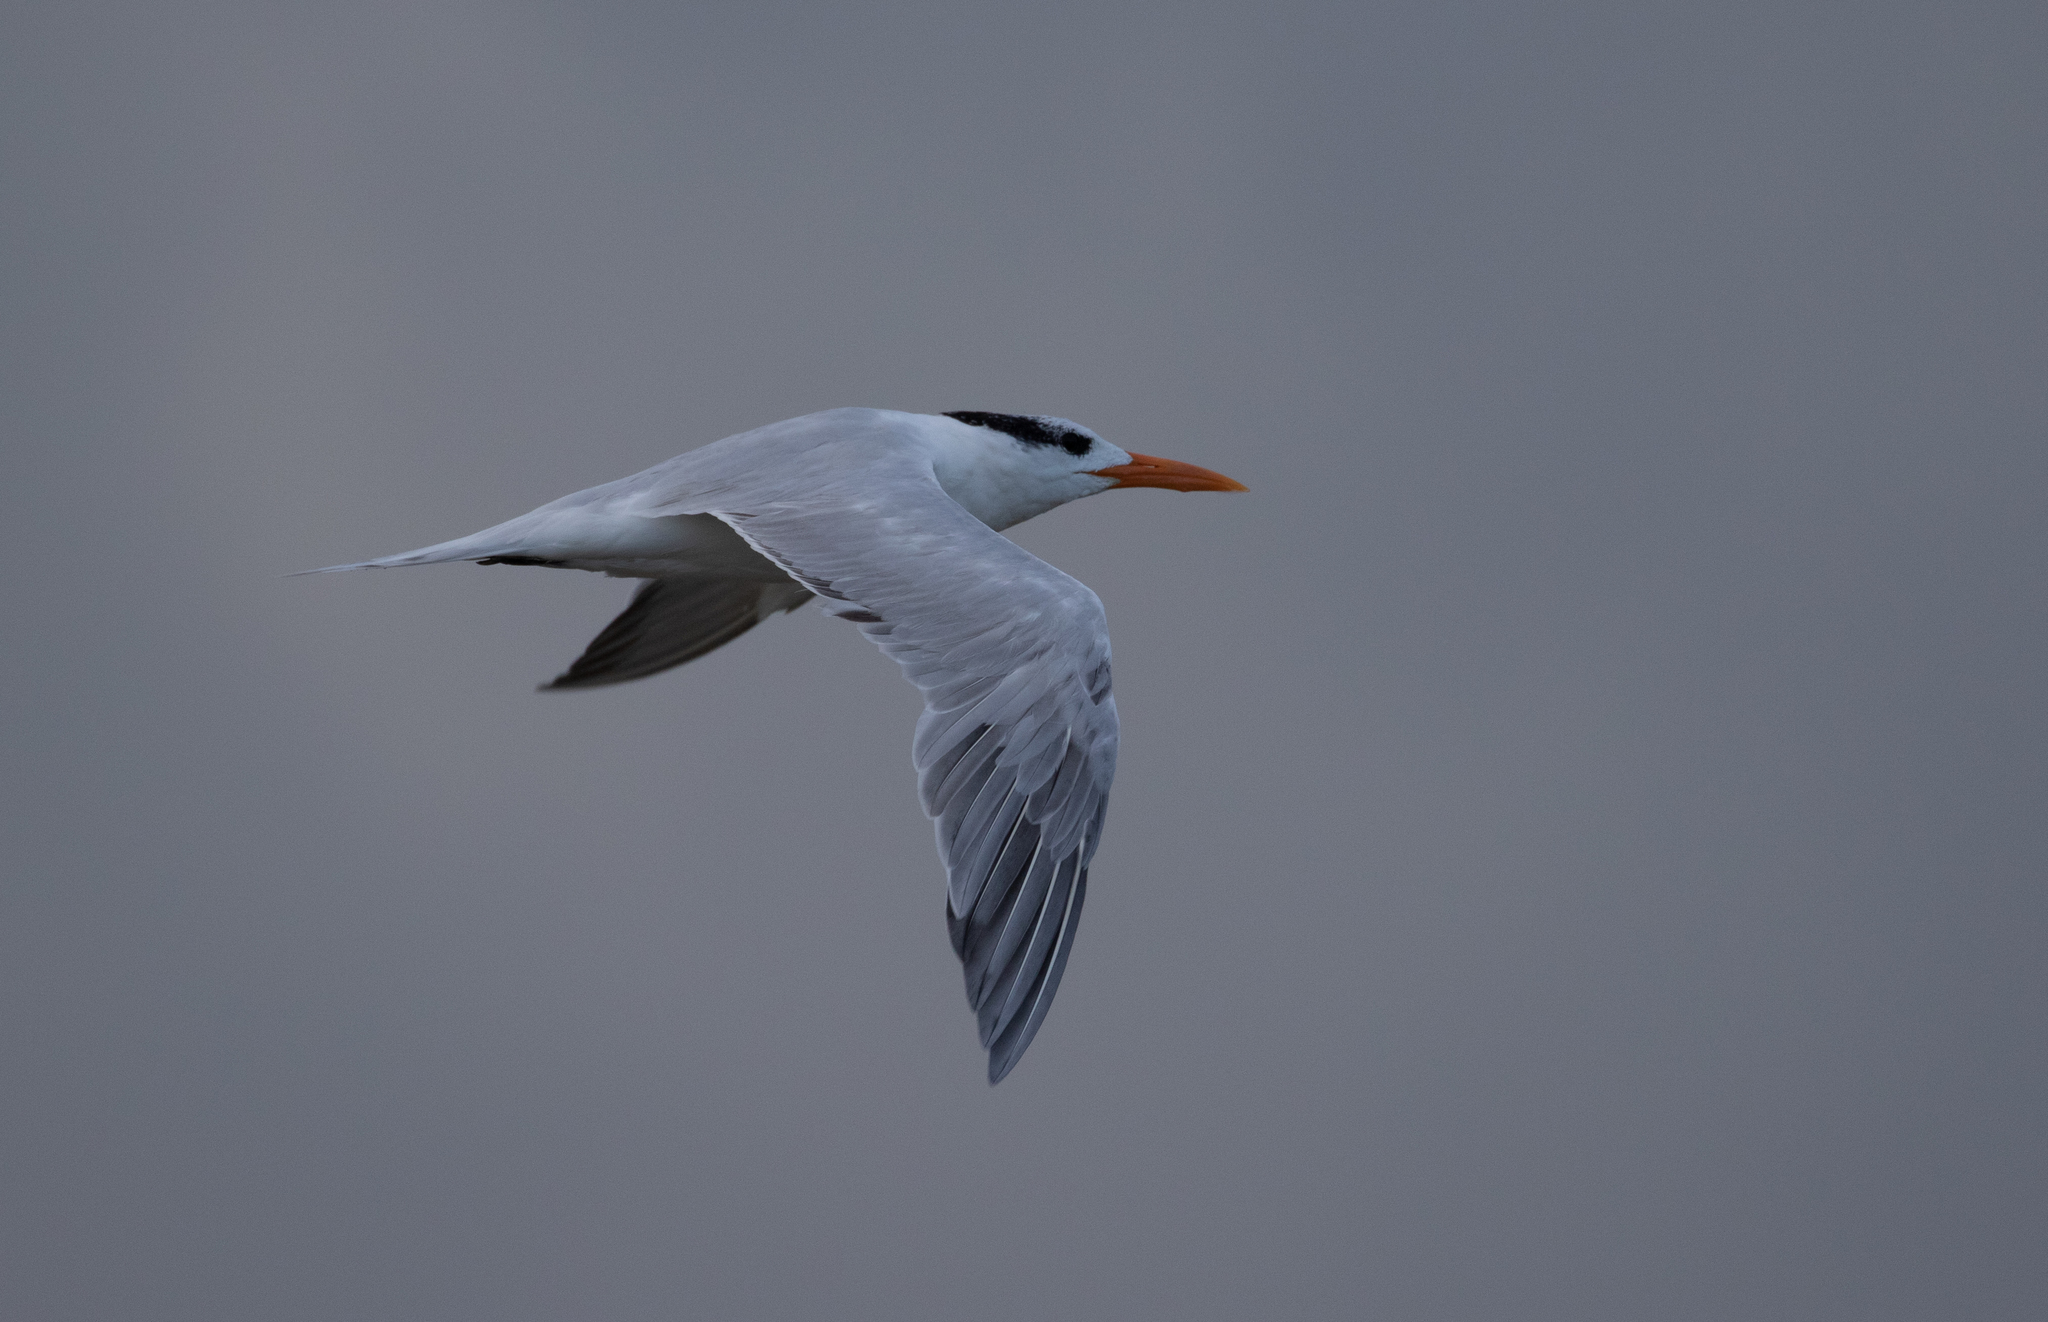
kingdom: Animalia
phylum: Chordata
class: Aves
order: Charadriiformes
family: Laridae
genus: Thalasseus
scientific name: Thalasseus maximus
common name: Royal tern
